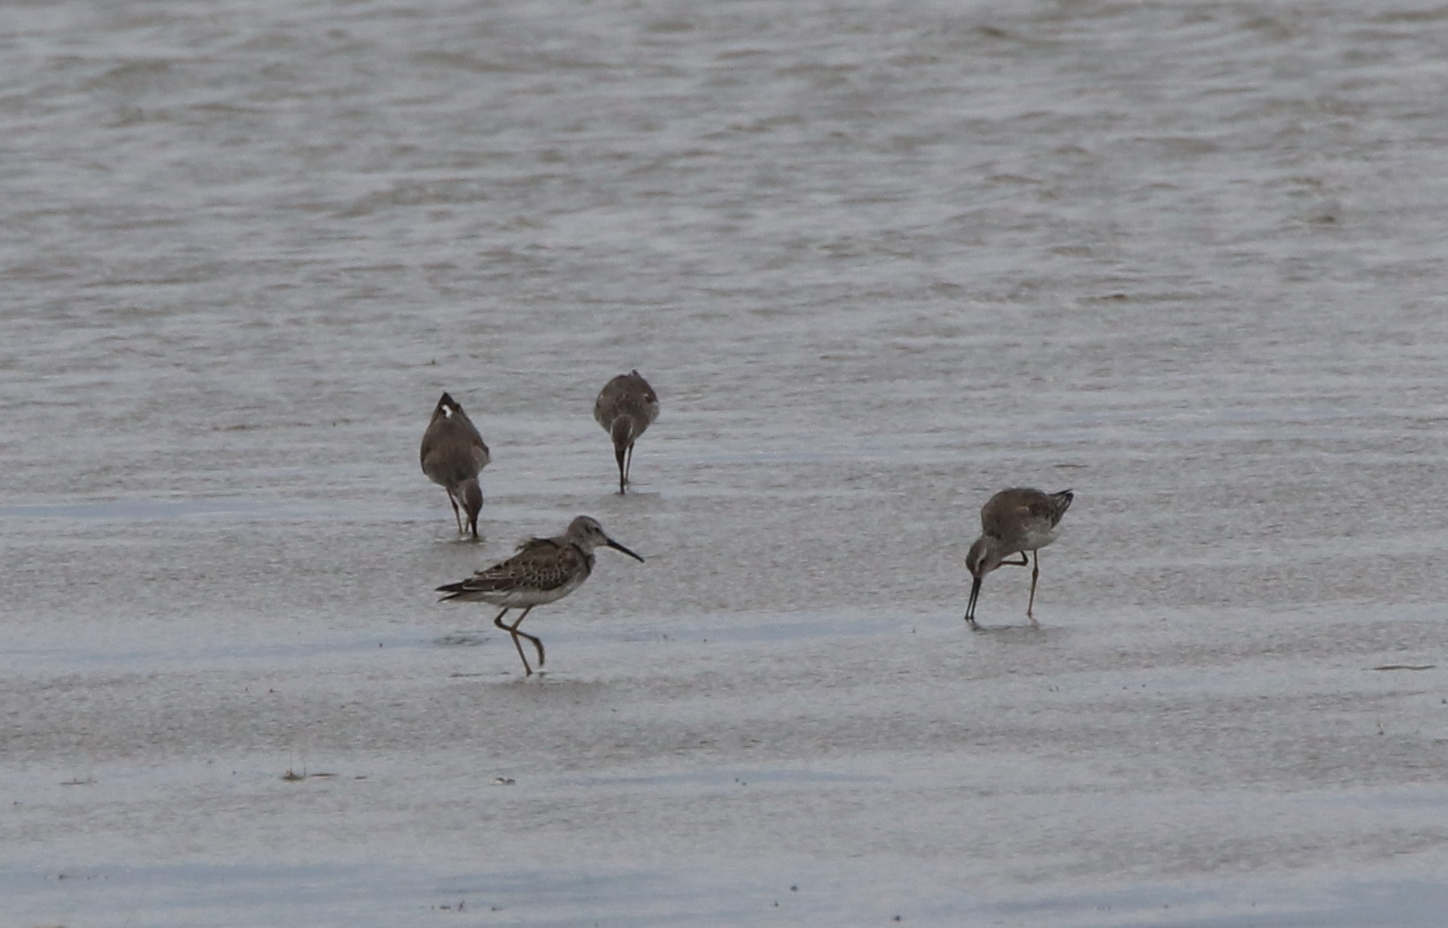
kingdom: Animalia
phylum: Chordata
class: Aves
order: Charadriiformes
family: Scolopacidae
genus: Calidris
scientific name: Calidris himantopus
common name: Stilt sandpiper
